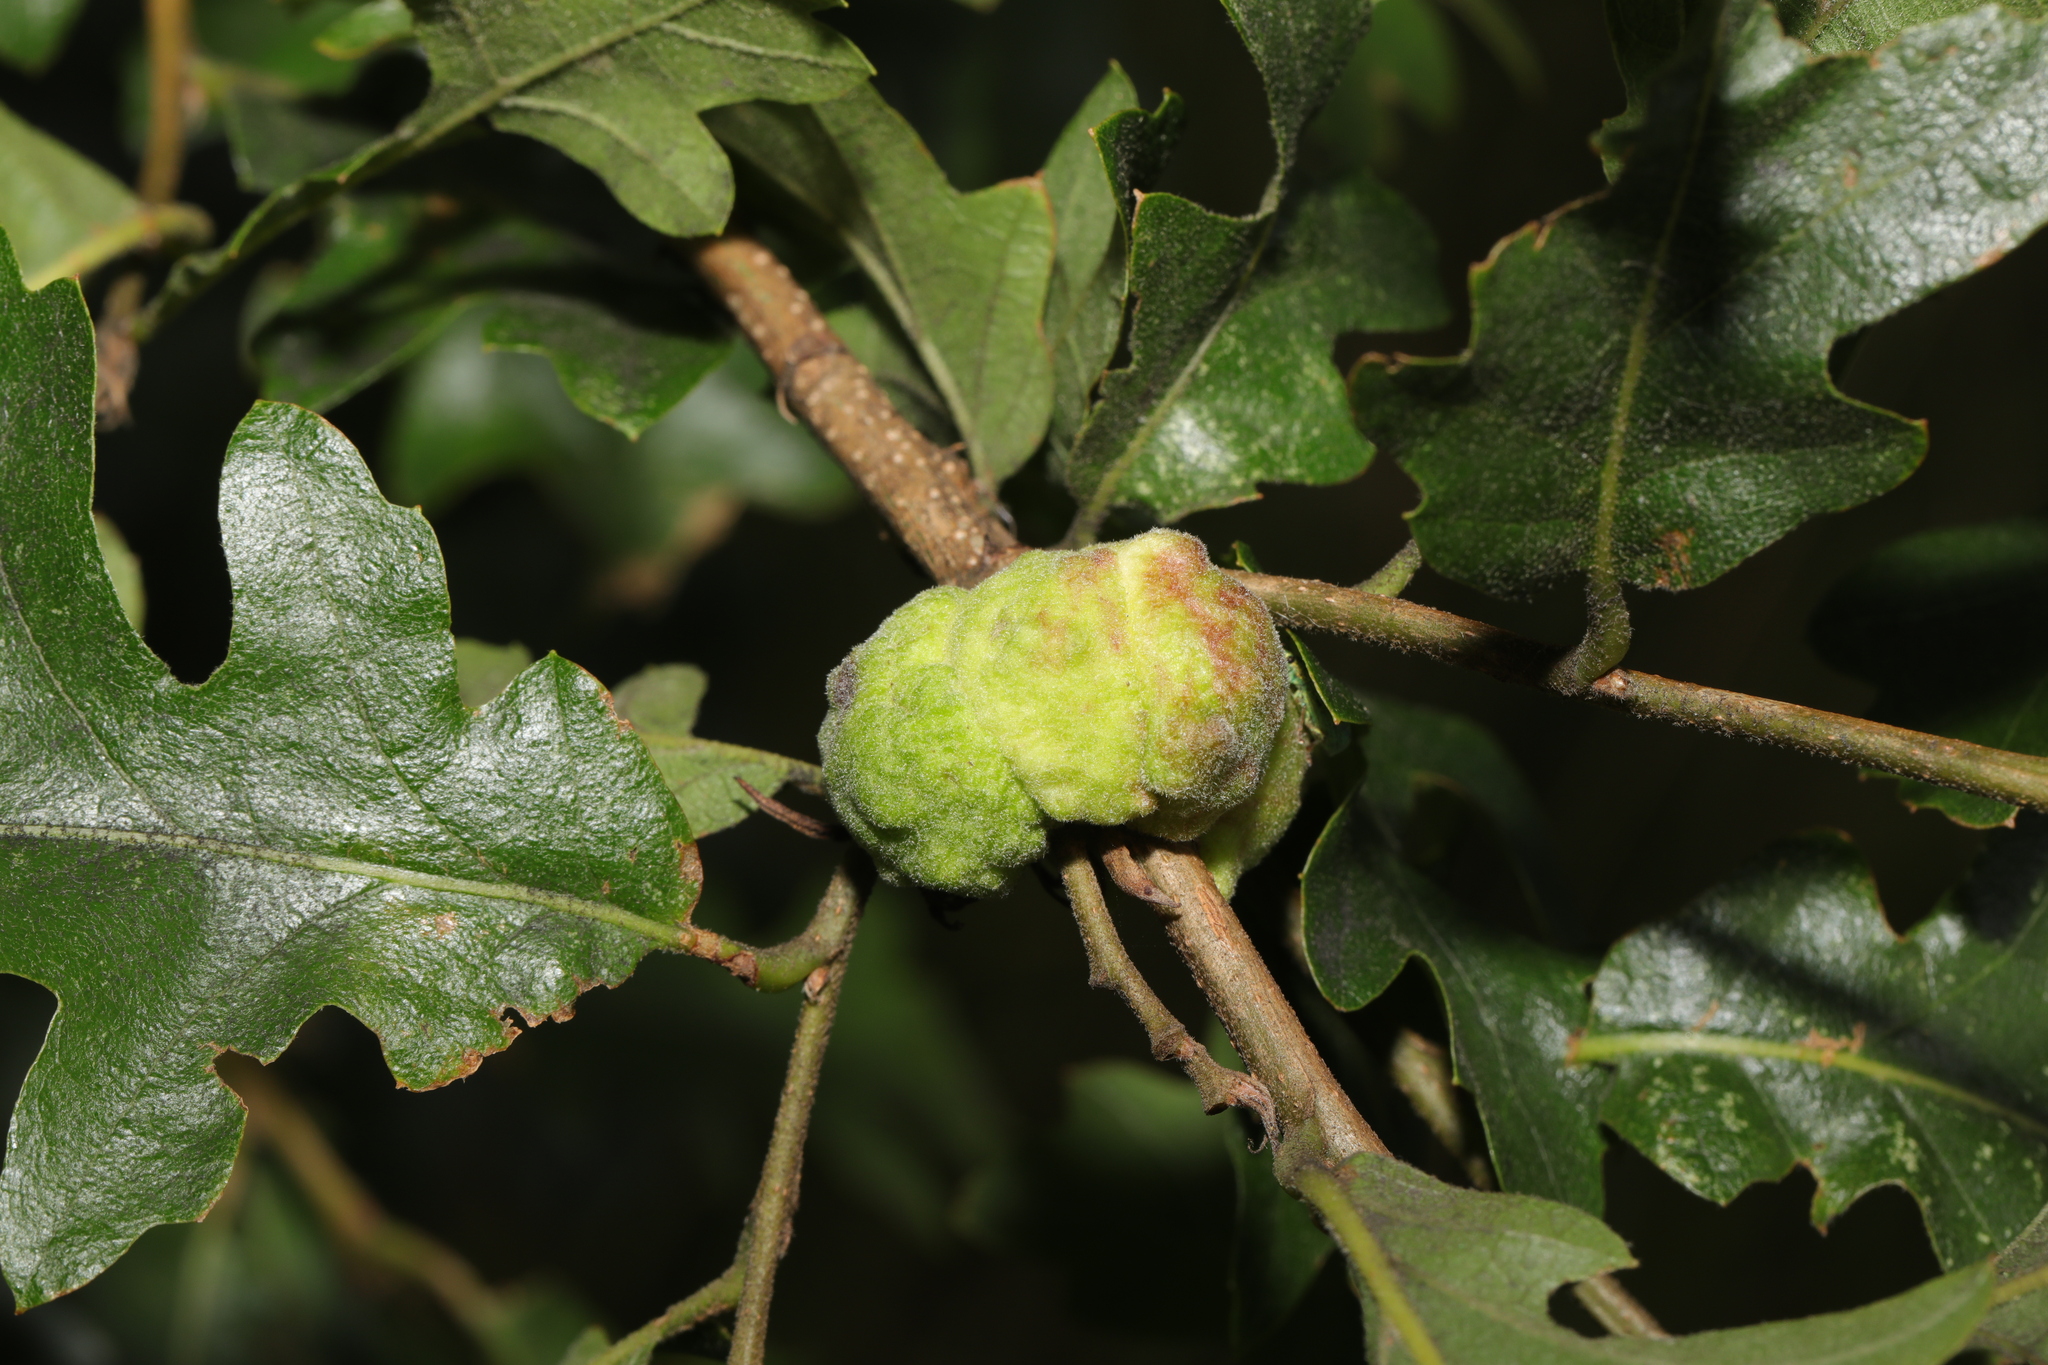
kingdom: Animalia
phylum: Arthropoda
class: Insecta
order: Hymenoptera
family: Cynipidae
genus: Aphelonyx
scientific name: Aphelonyx cerricola
